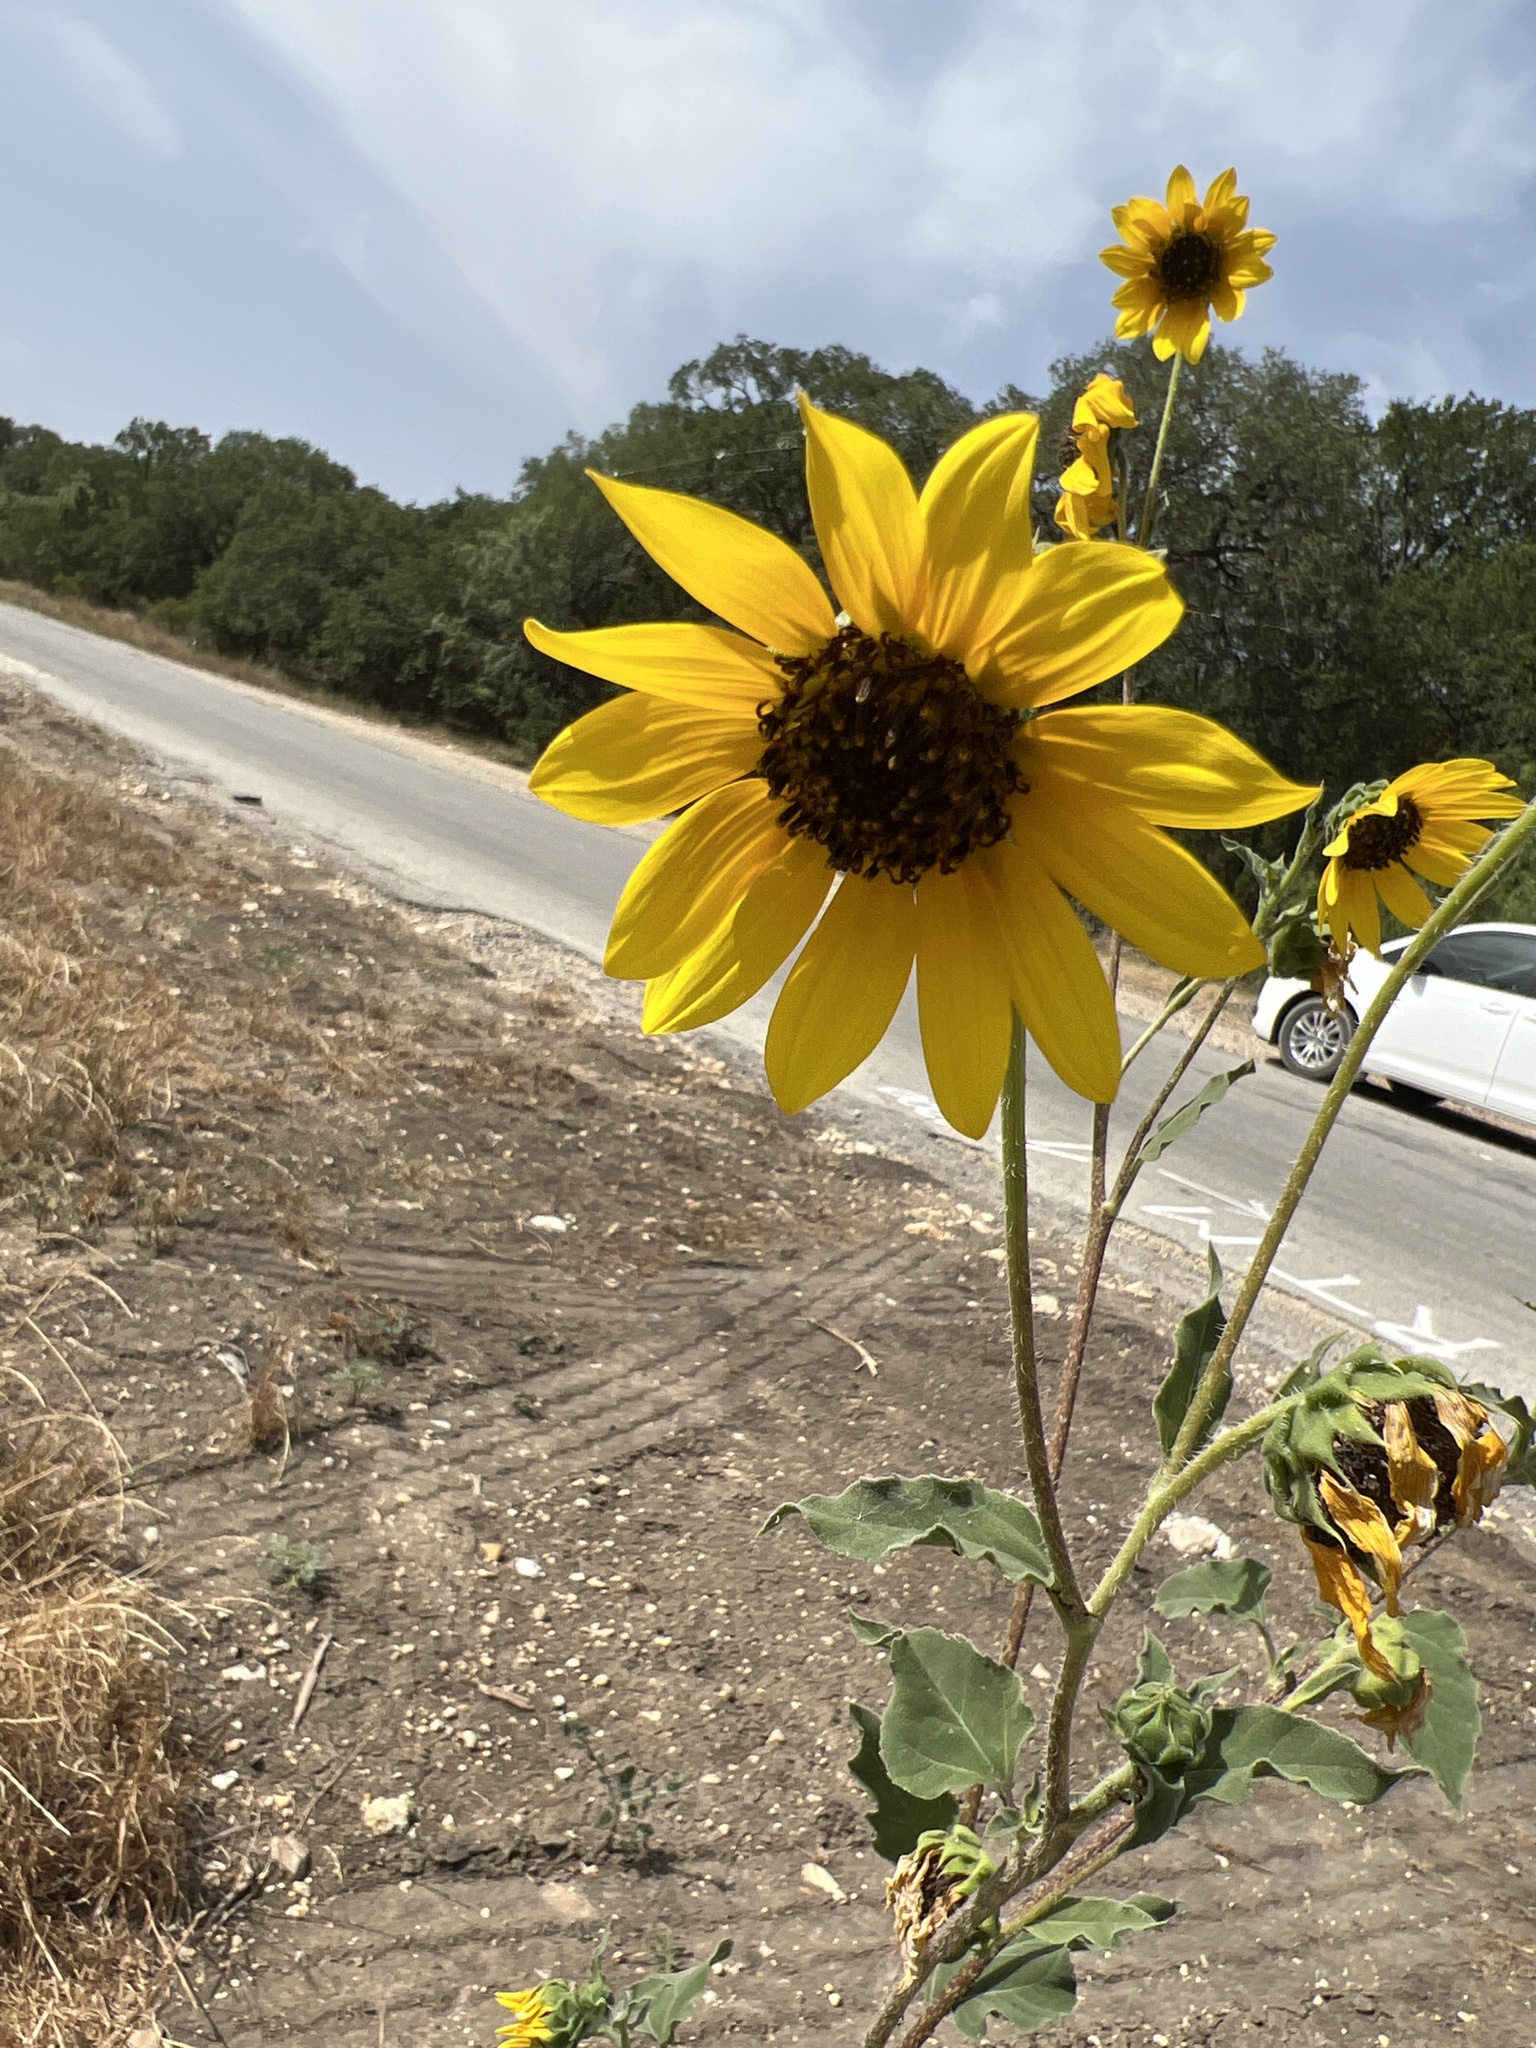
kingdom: Plantae
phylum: Tracheophyta
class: Magnoliopsida
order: Asterales
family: Asteraceae
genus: Helianthus
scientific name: Helianthus annuus
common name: Sunflower
